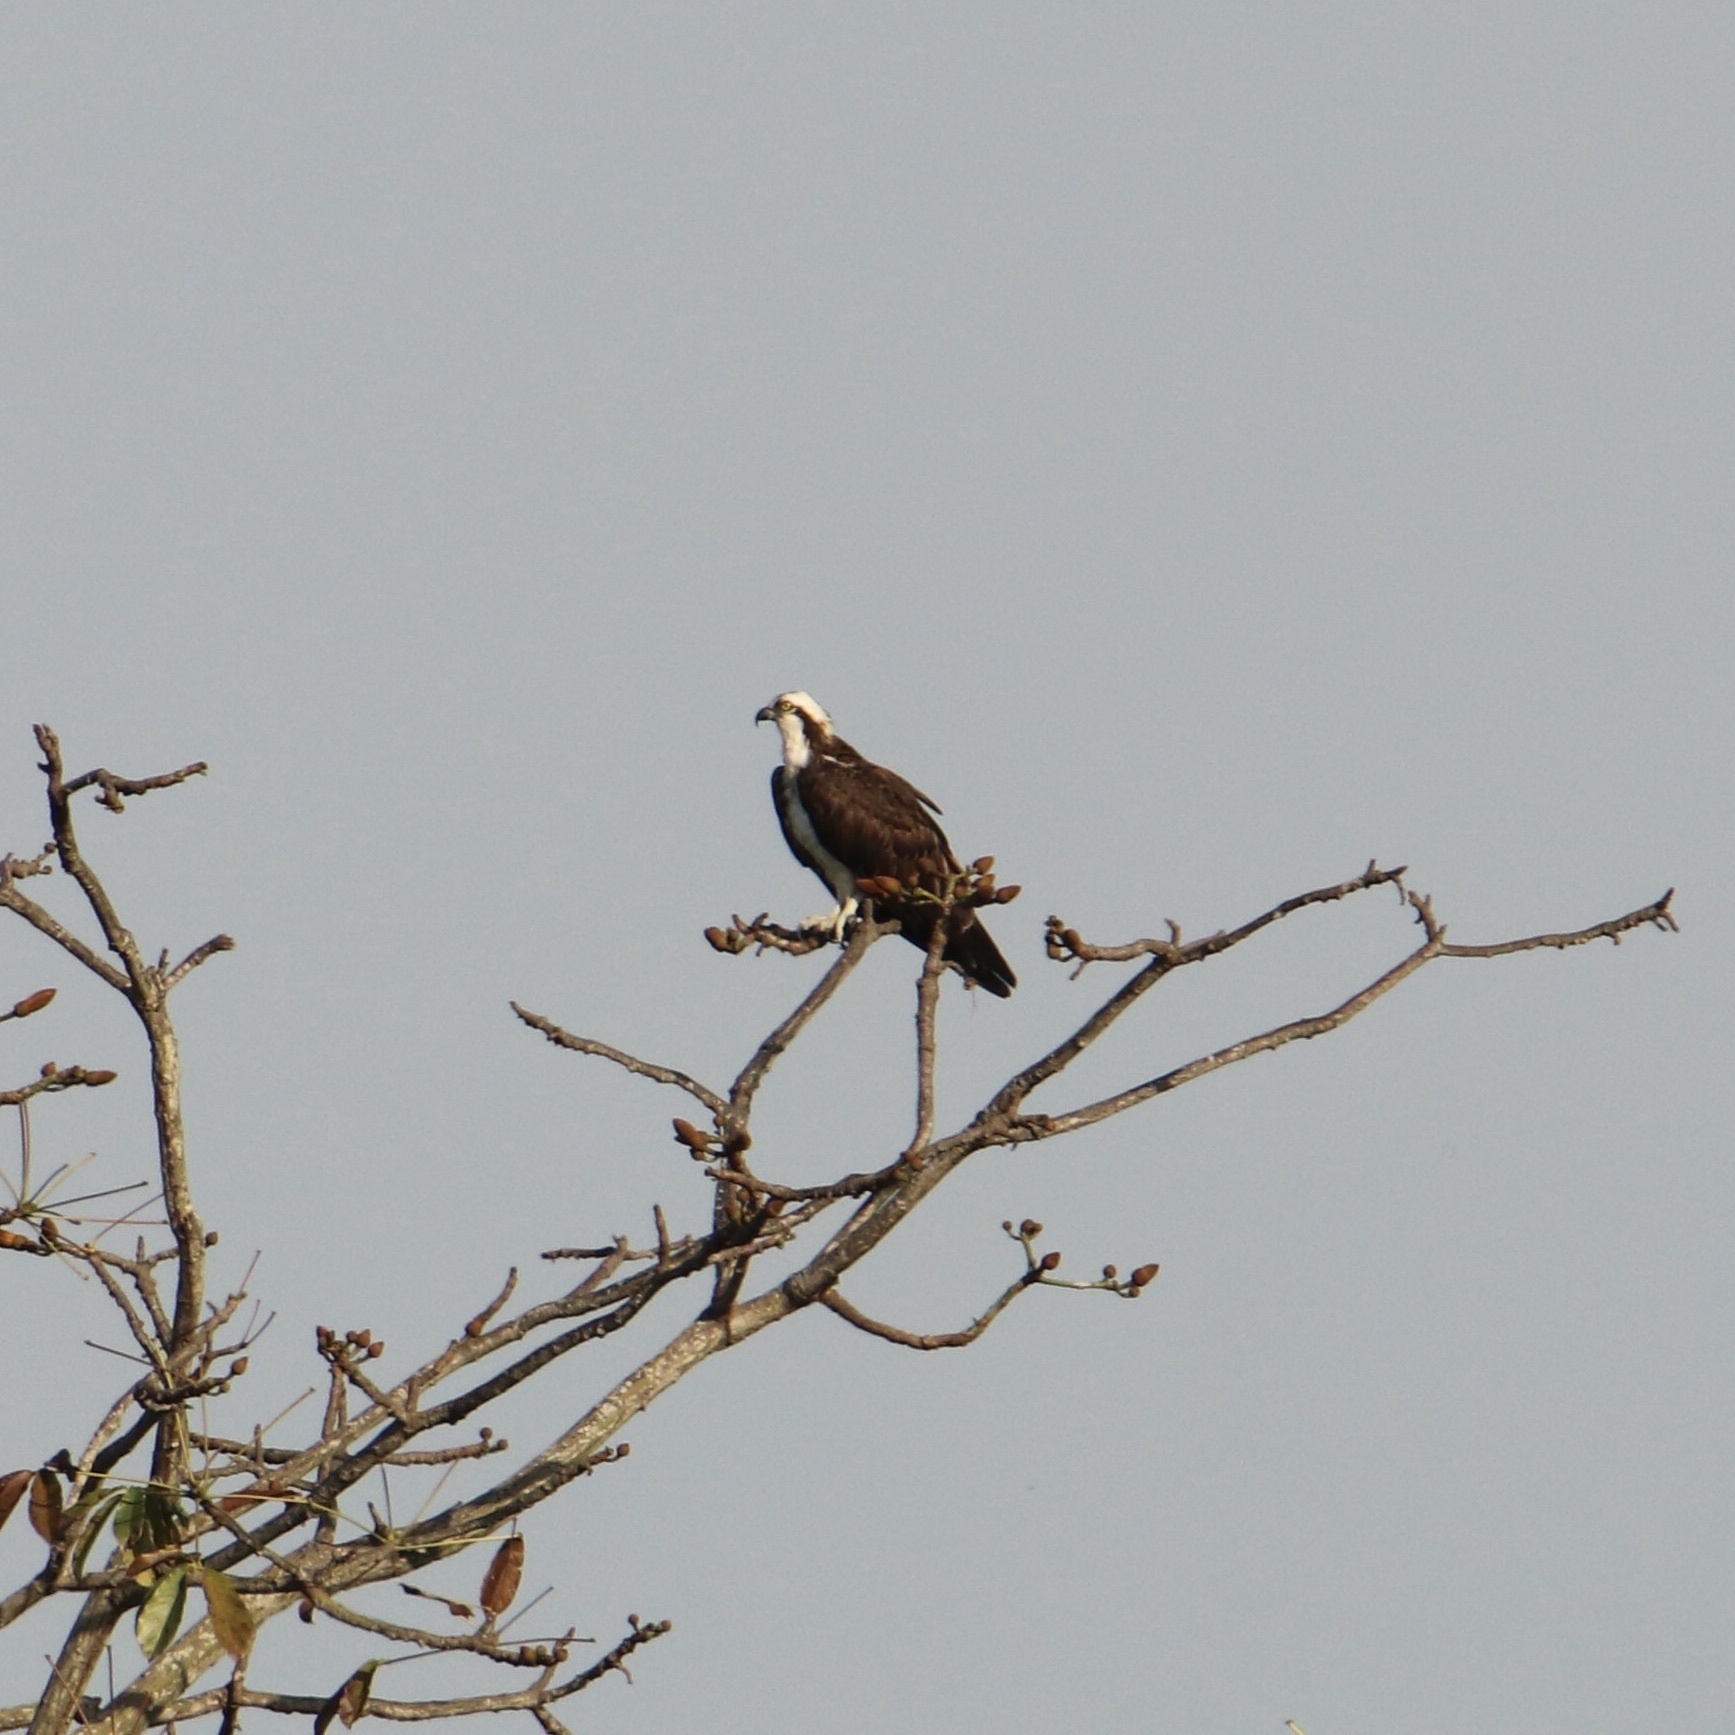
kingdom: Animalia
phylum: Chordata
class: Aves
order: Accipitriformes
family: Pandionidae
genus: Pandion
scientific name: Pandion haliaetus
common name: Osprey
